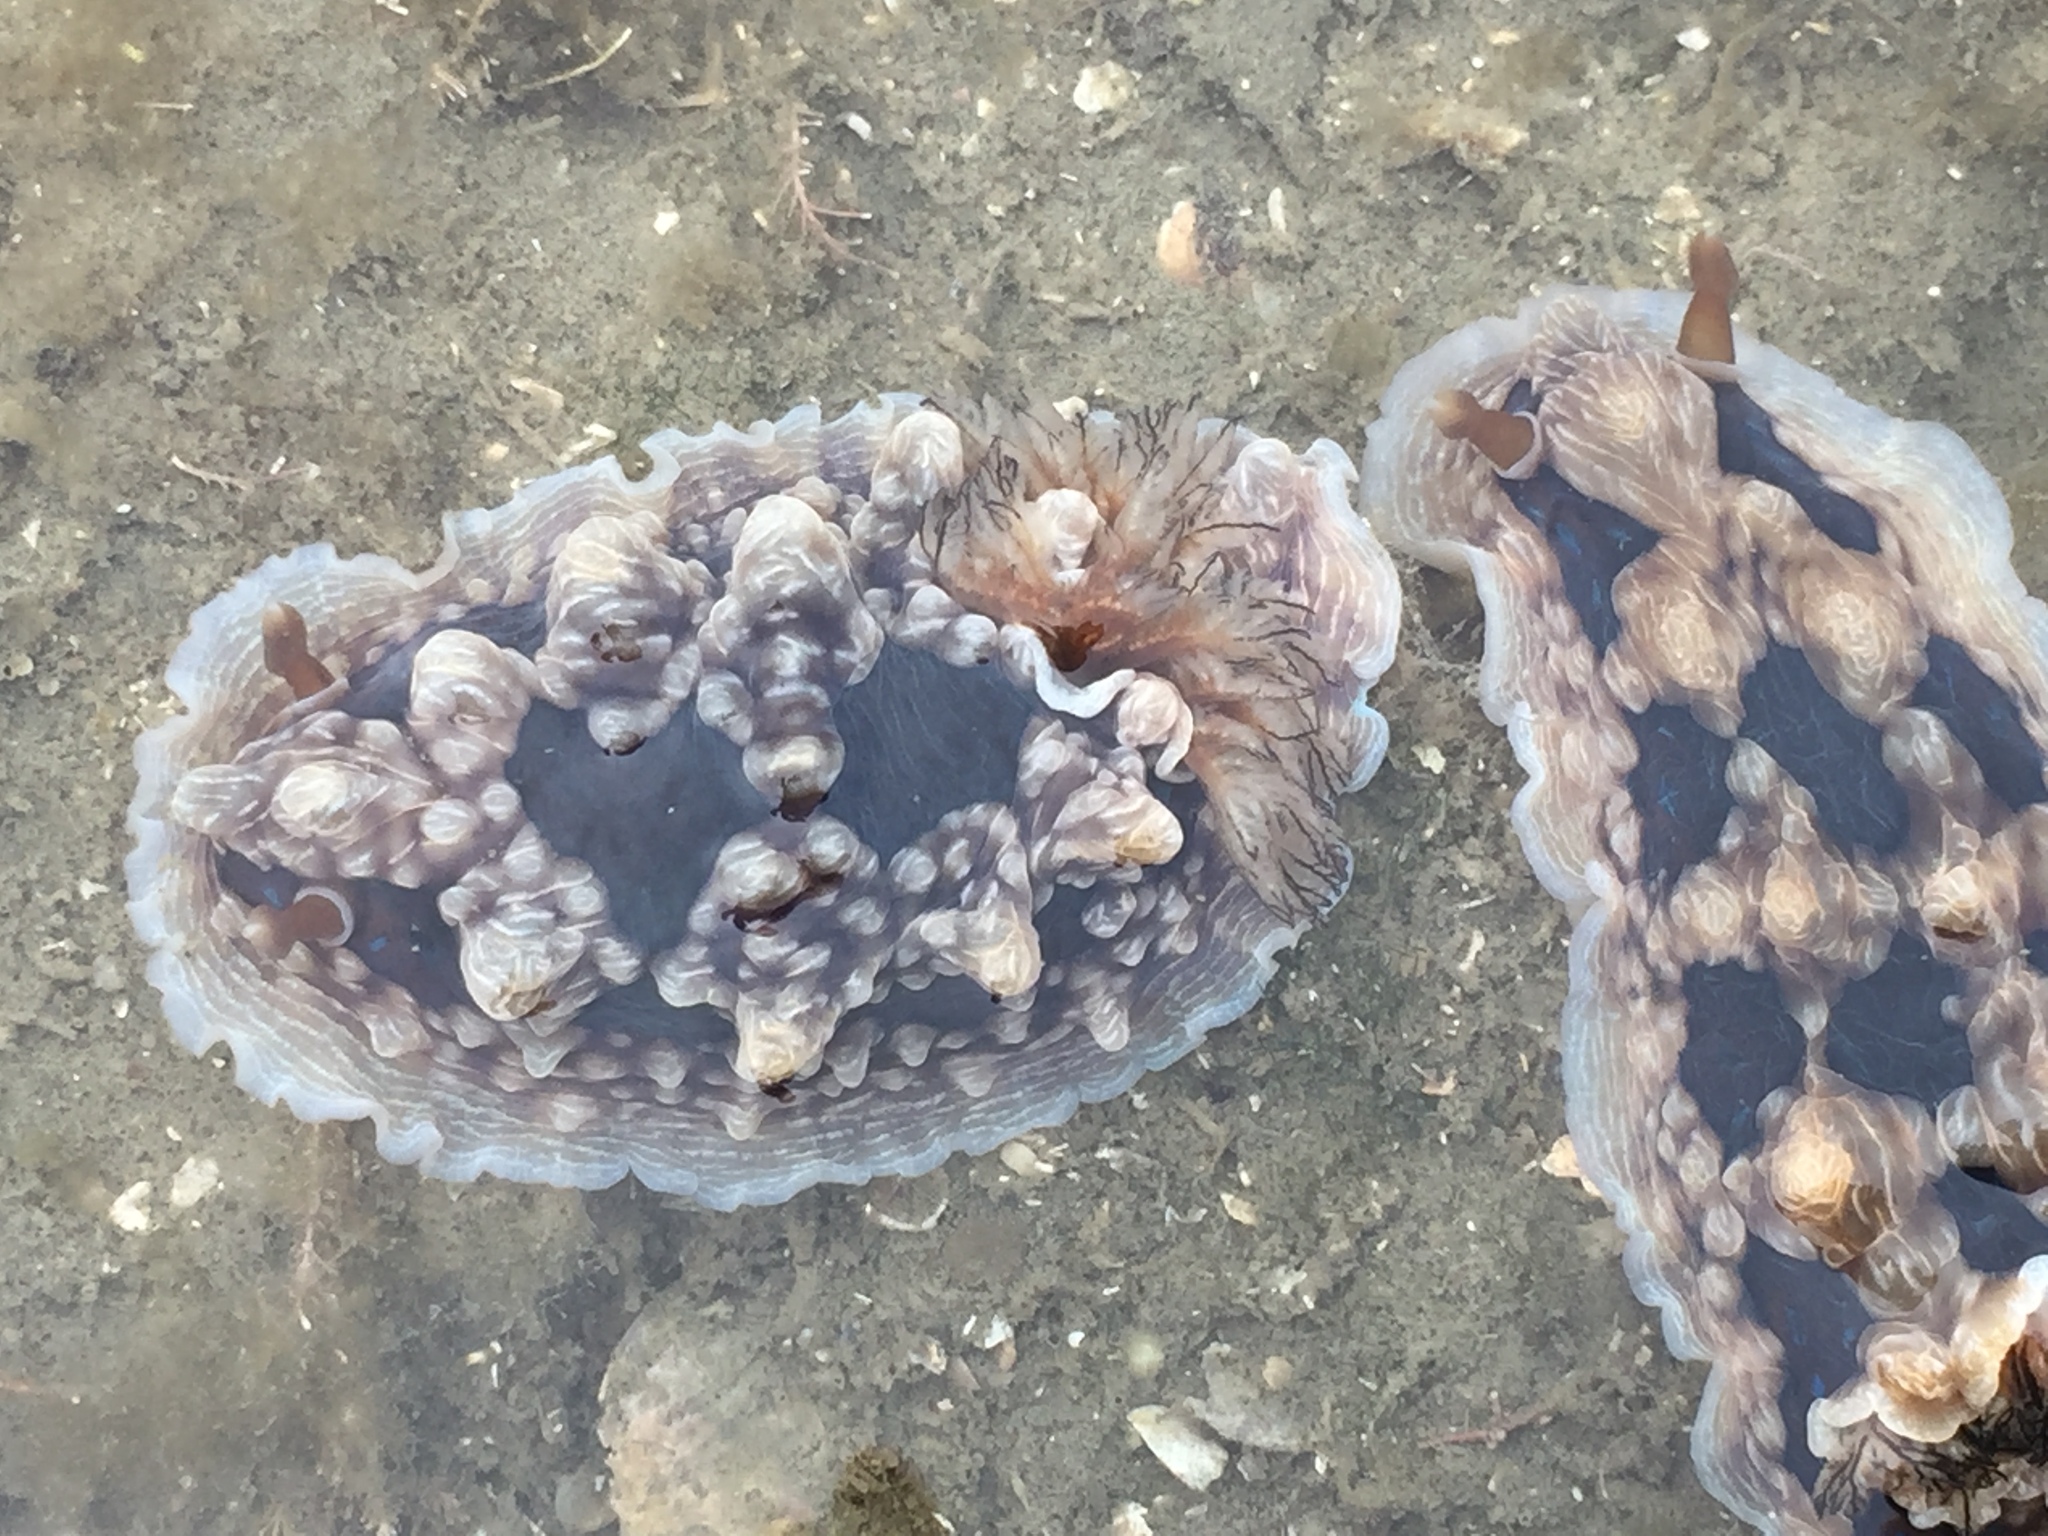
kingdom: Animalia
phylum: Mollusca
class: Gastropoda
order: Nudibranchia
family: Dendrodorididae
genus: Dendrodoris
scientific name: Dendrodoris krusensternii
